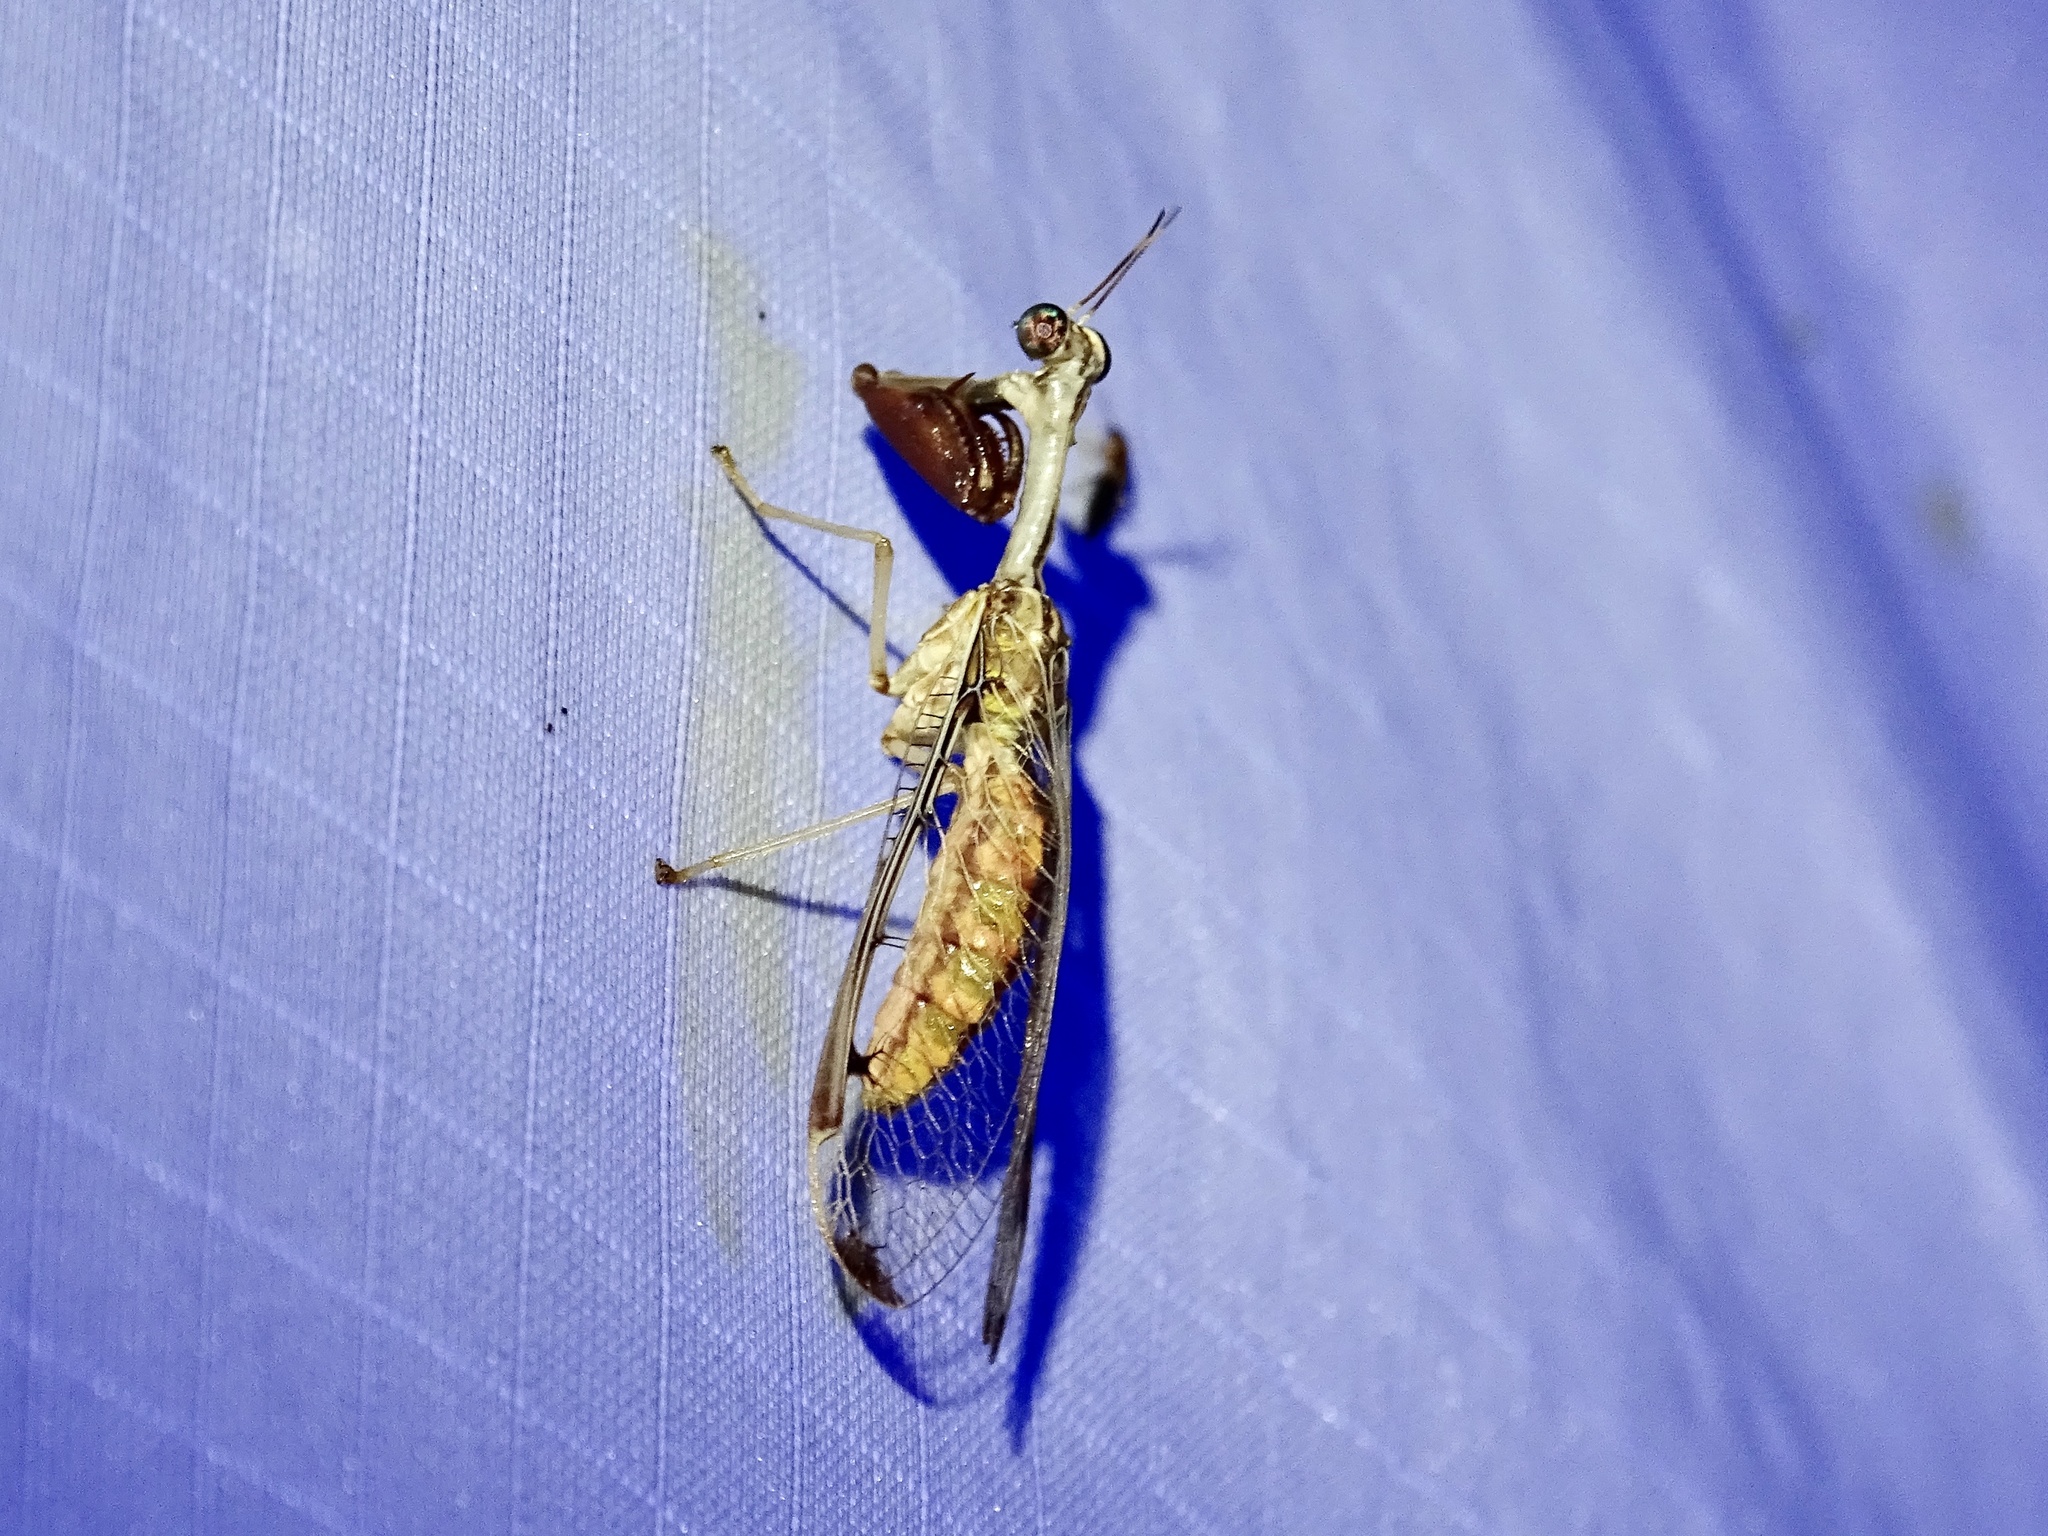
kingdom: Animalia
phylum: Arthropoda
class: Insecta
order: Neuroptera
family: Mantispidae
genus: Dicromantispa
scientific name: Dicromantispa interrupta
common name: Four-spotted mantidfly
